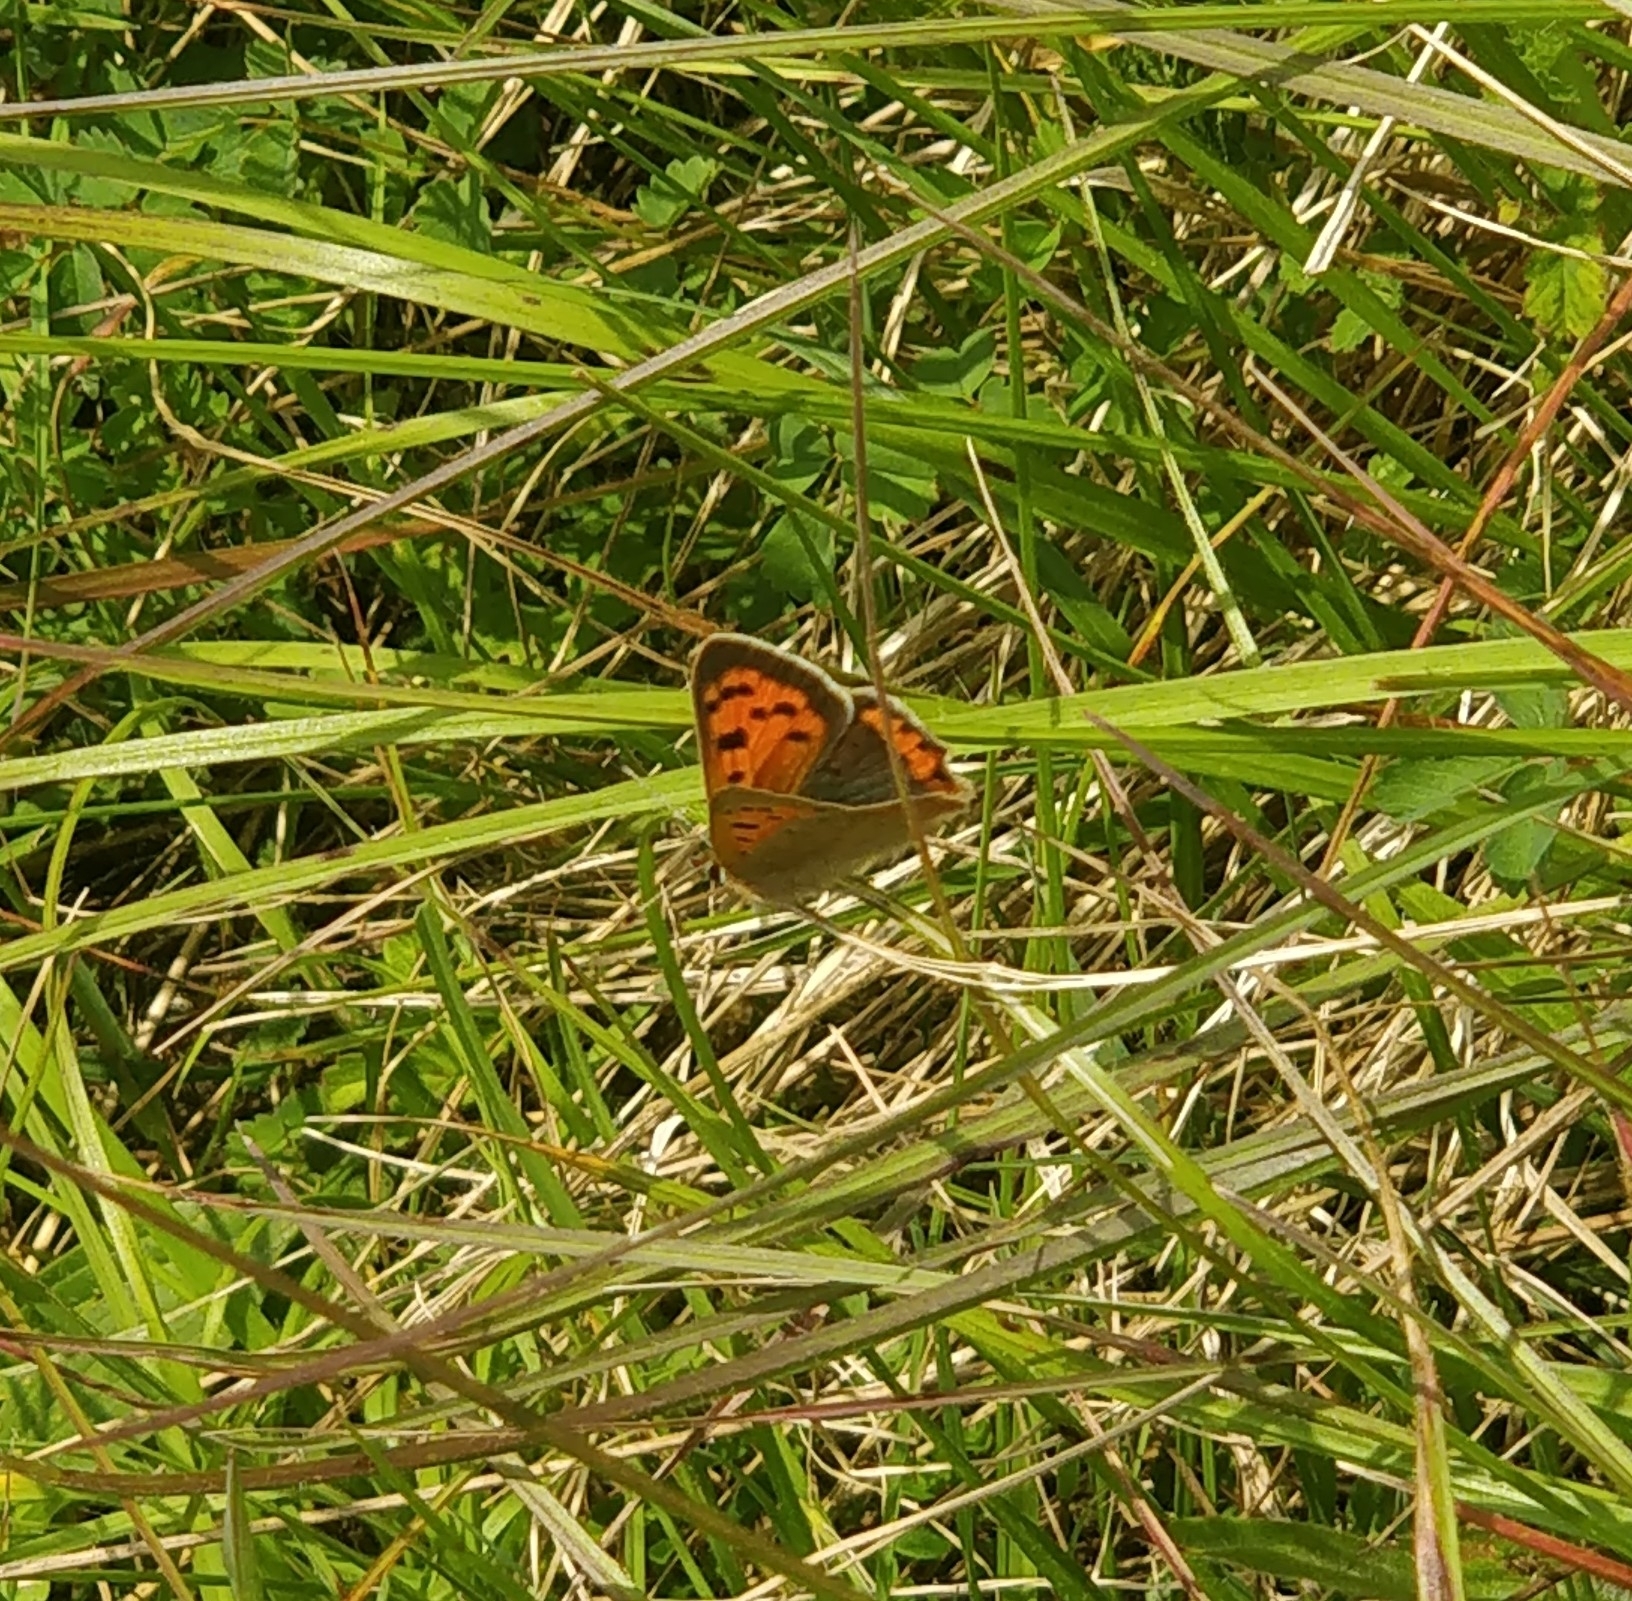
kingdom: Animalia
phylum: Arthropoda
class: Insecta
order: Lepidoptera
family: Lycaenidae
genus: Lycaena
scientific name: Lycaena phlaeas
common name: Small copper
